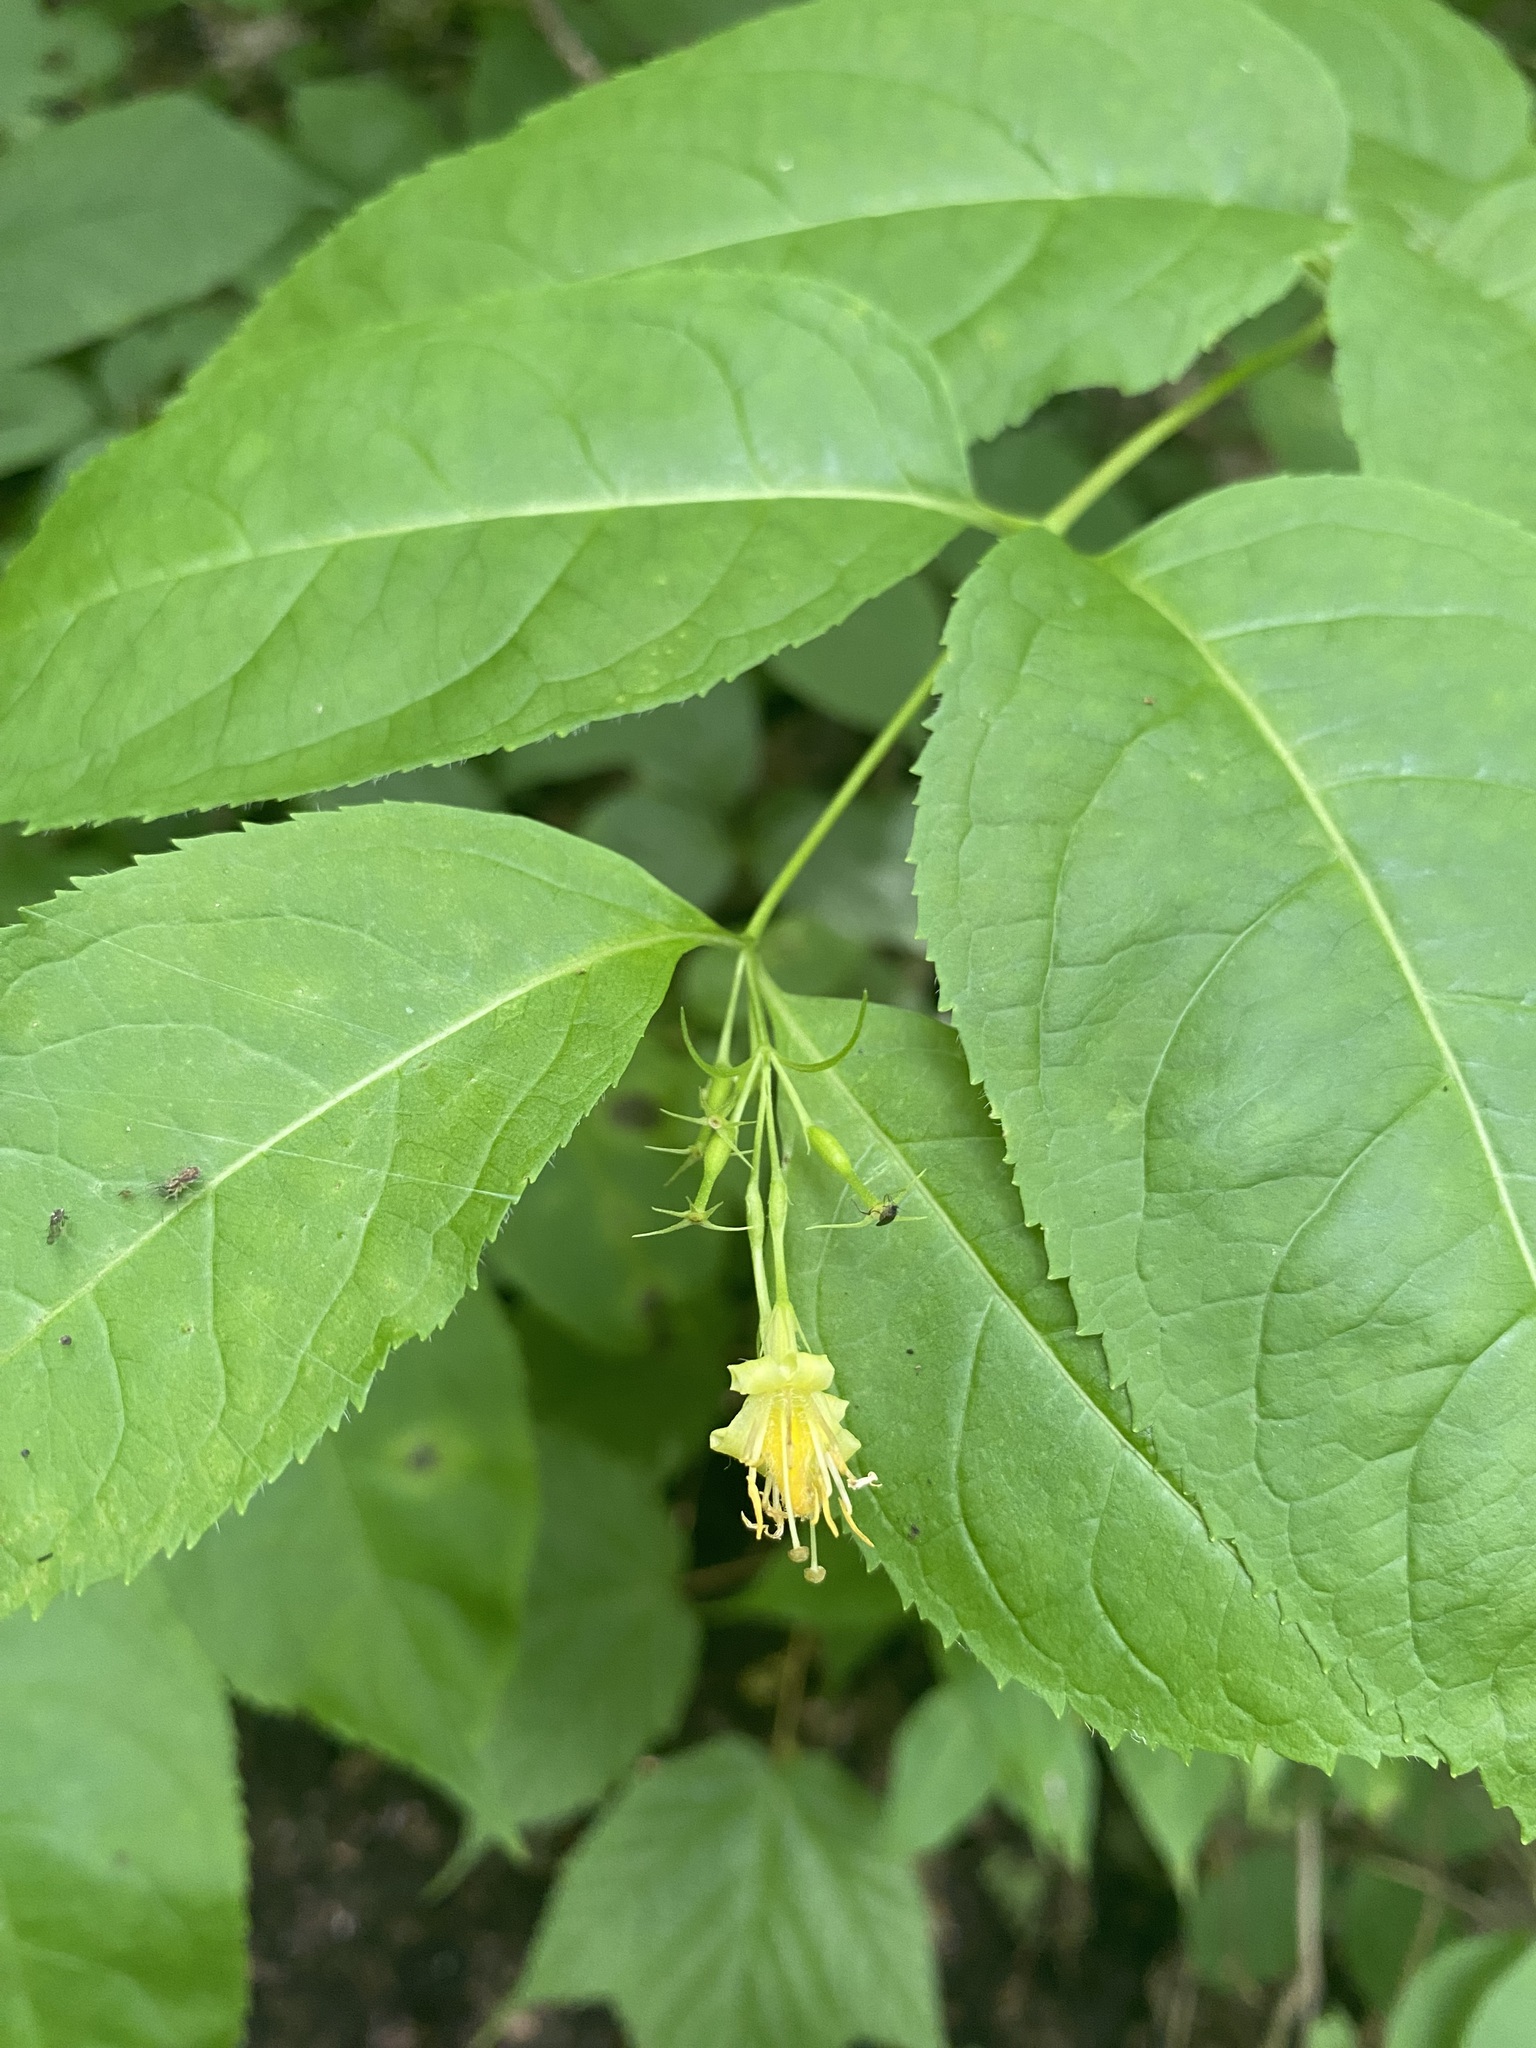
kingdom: Plantae
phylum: Tracheophyta
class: Magnoliopsida
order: Dipsacales
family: Caprifoliaceae
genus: Diervilla
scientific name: Diervilla lonicera
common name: Bush-honeysuckle
